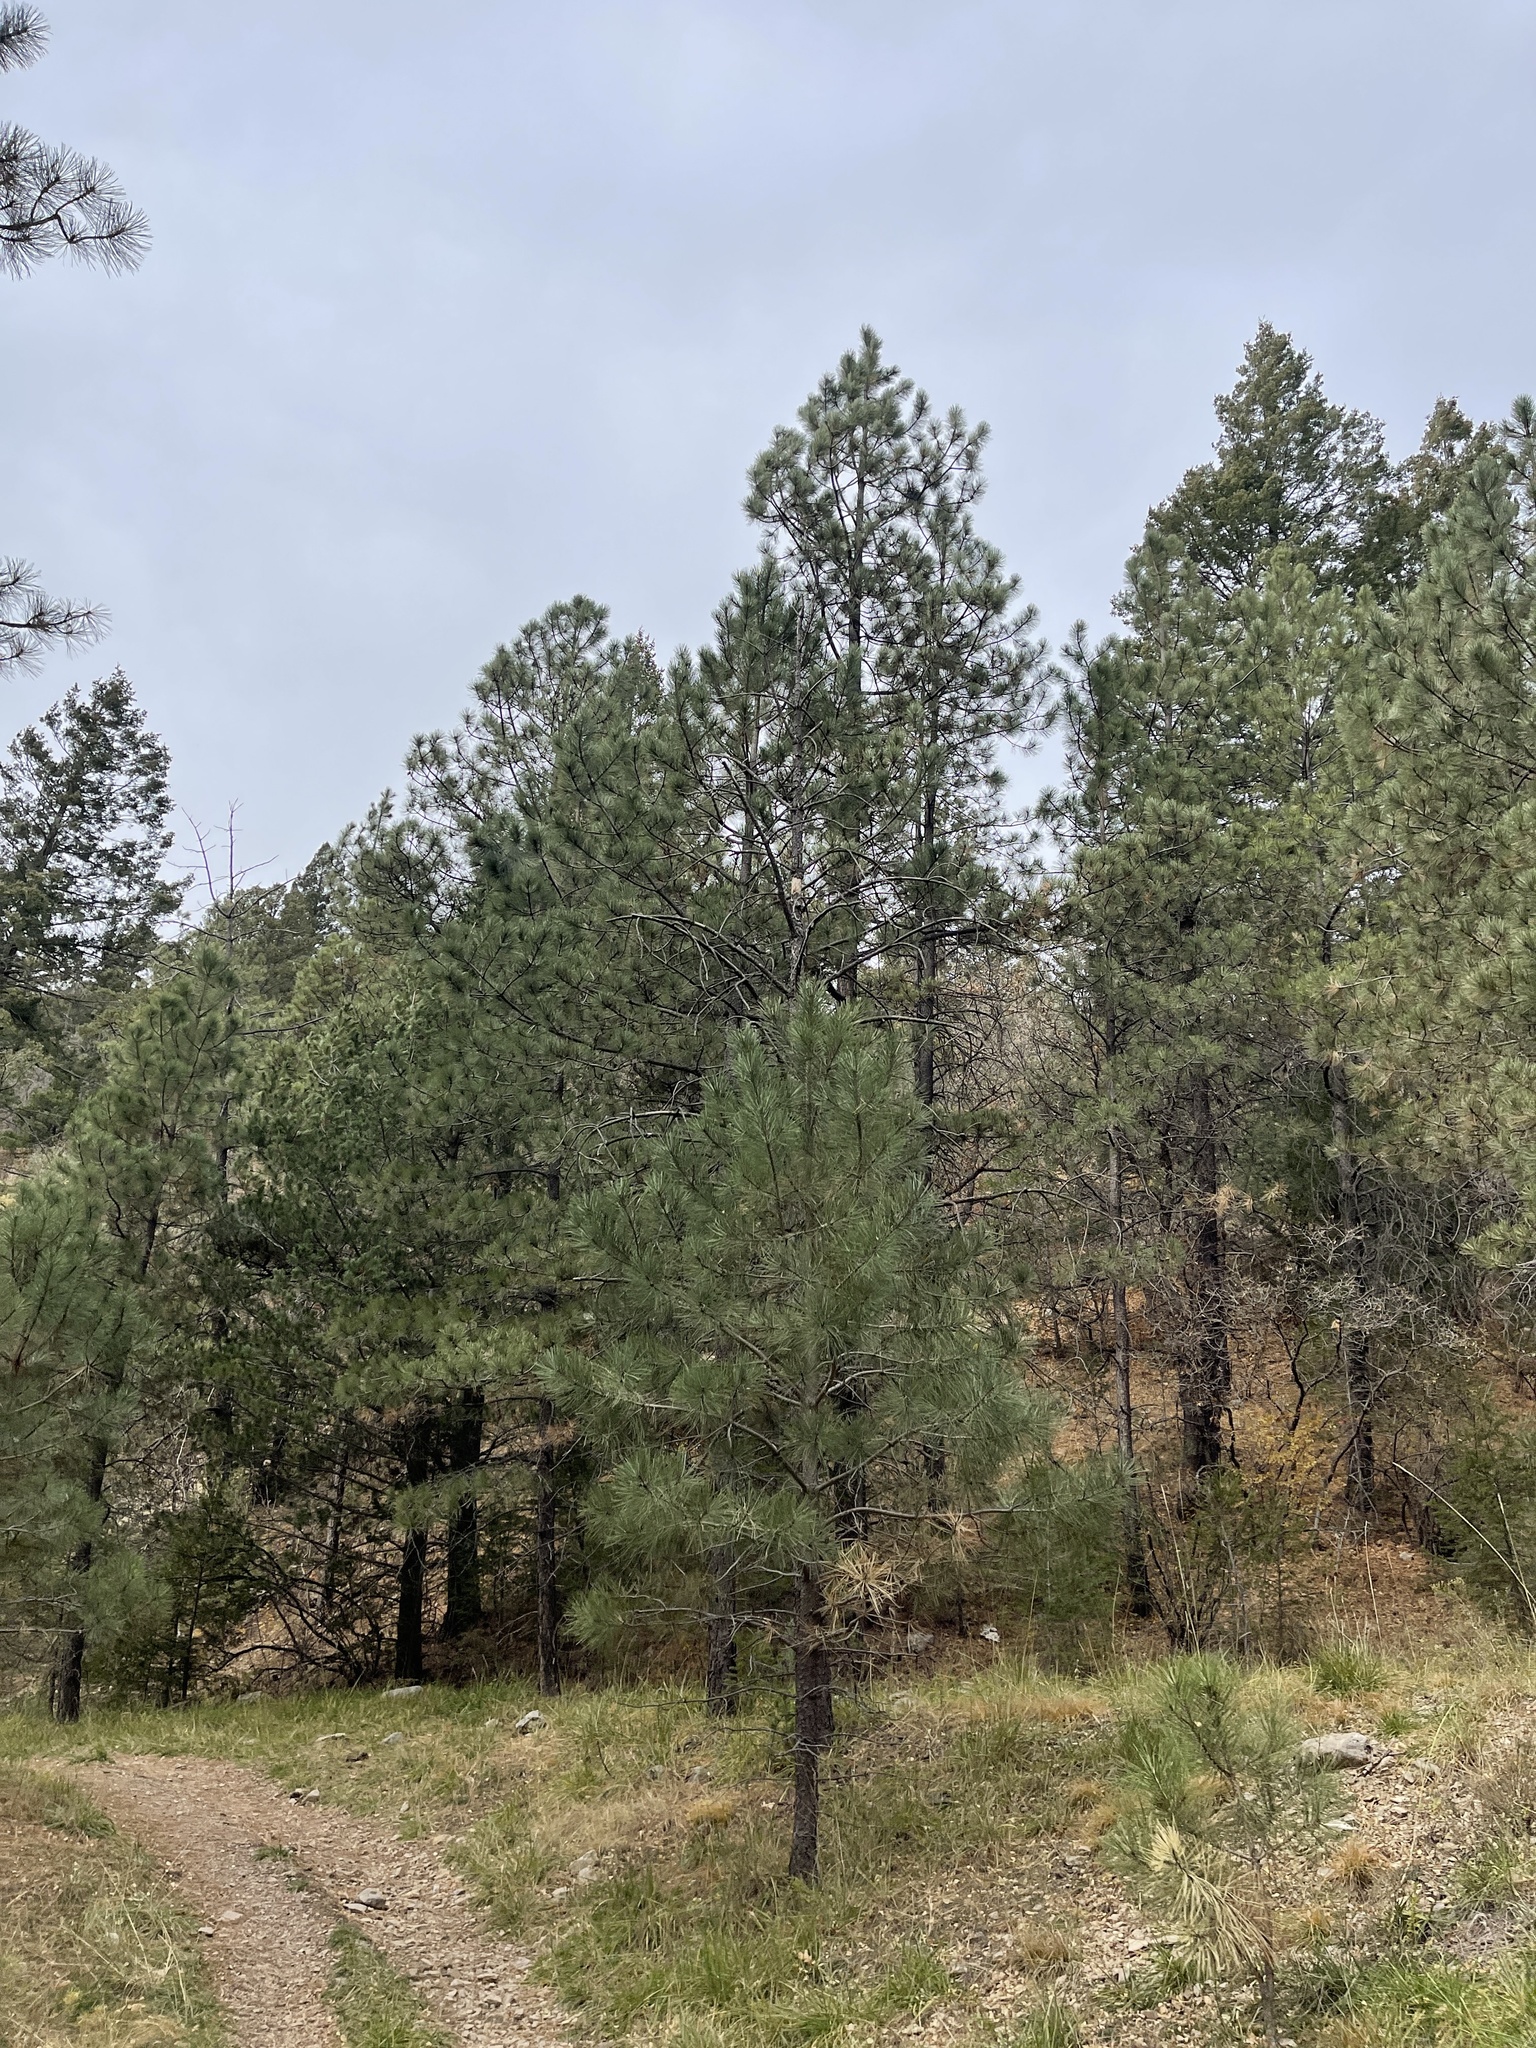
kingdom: Plantae
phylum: Tracheophyta
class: Pinopsida
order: Pinales
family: Pinaceae
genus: Pinus
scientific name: Pinus ponderosa
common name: Western yellow-pine
